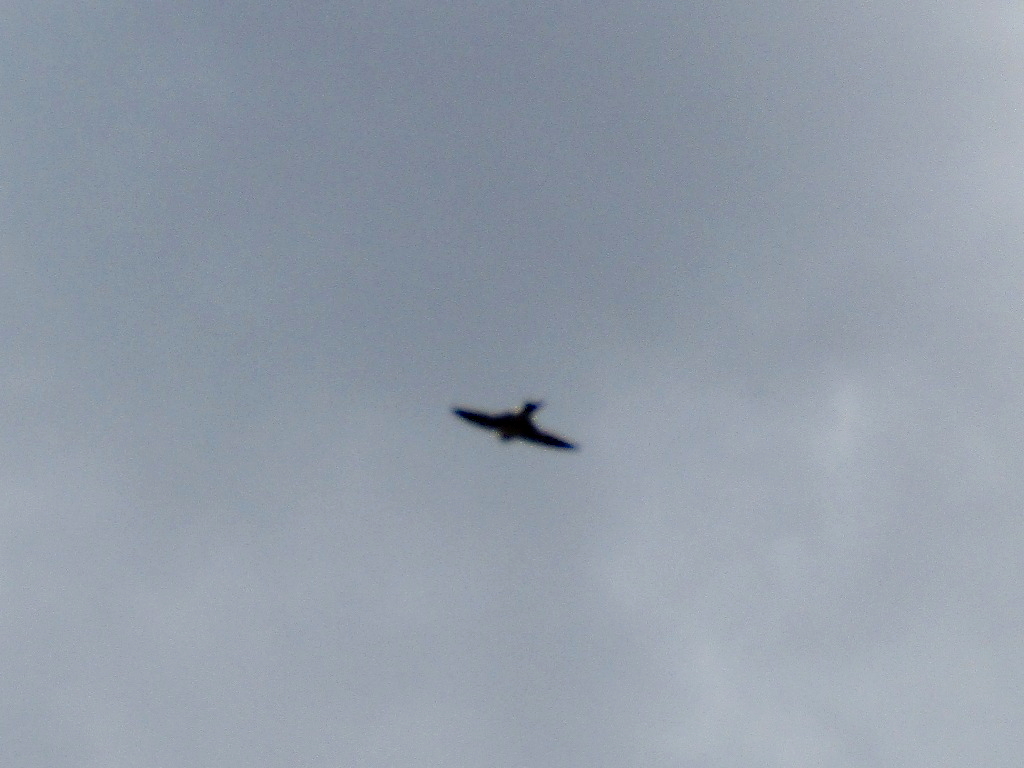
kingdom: Animalia
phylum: Chordata
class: Aves
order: Passeriformes
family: Hirundinidae
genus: Delichon
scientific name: Delichon urbicum
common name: Common house martin
